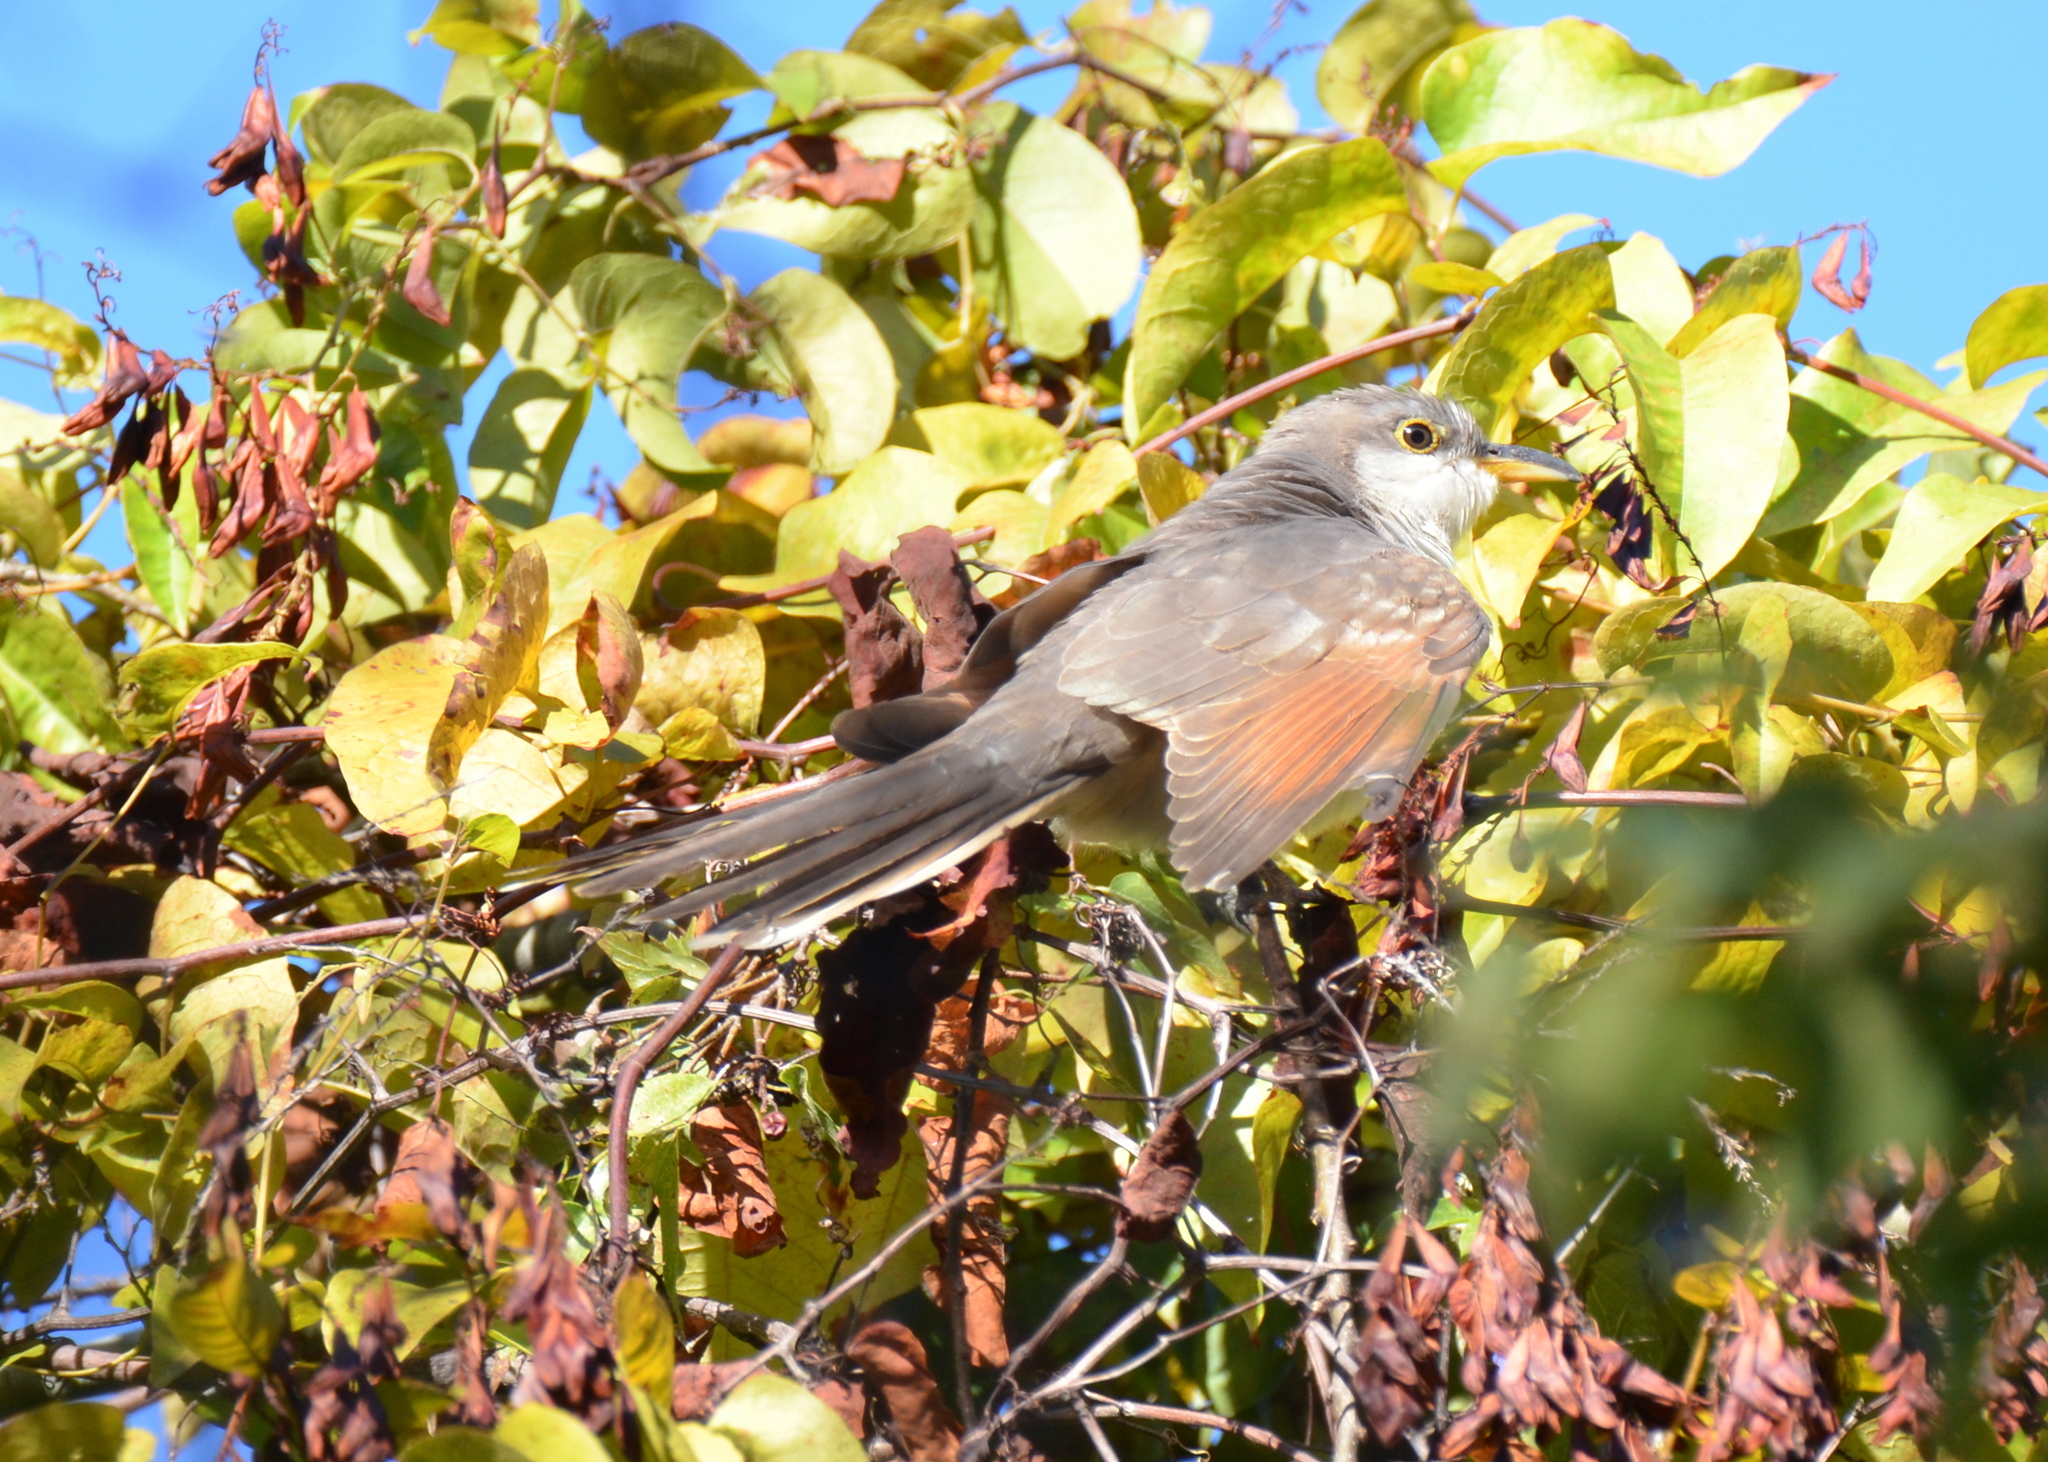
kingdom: Animalia
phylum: Chordata
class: Aves
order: Cuculiformes
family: Cuculidae
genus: Coccyzus
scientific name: Coccyzus americanus
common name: Yellow-billed cuckoo
